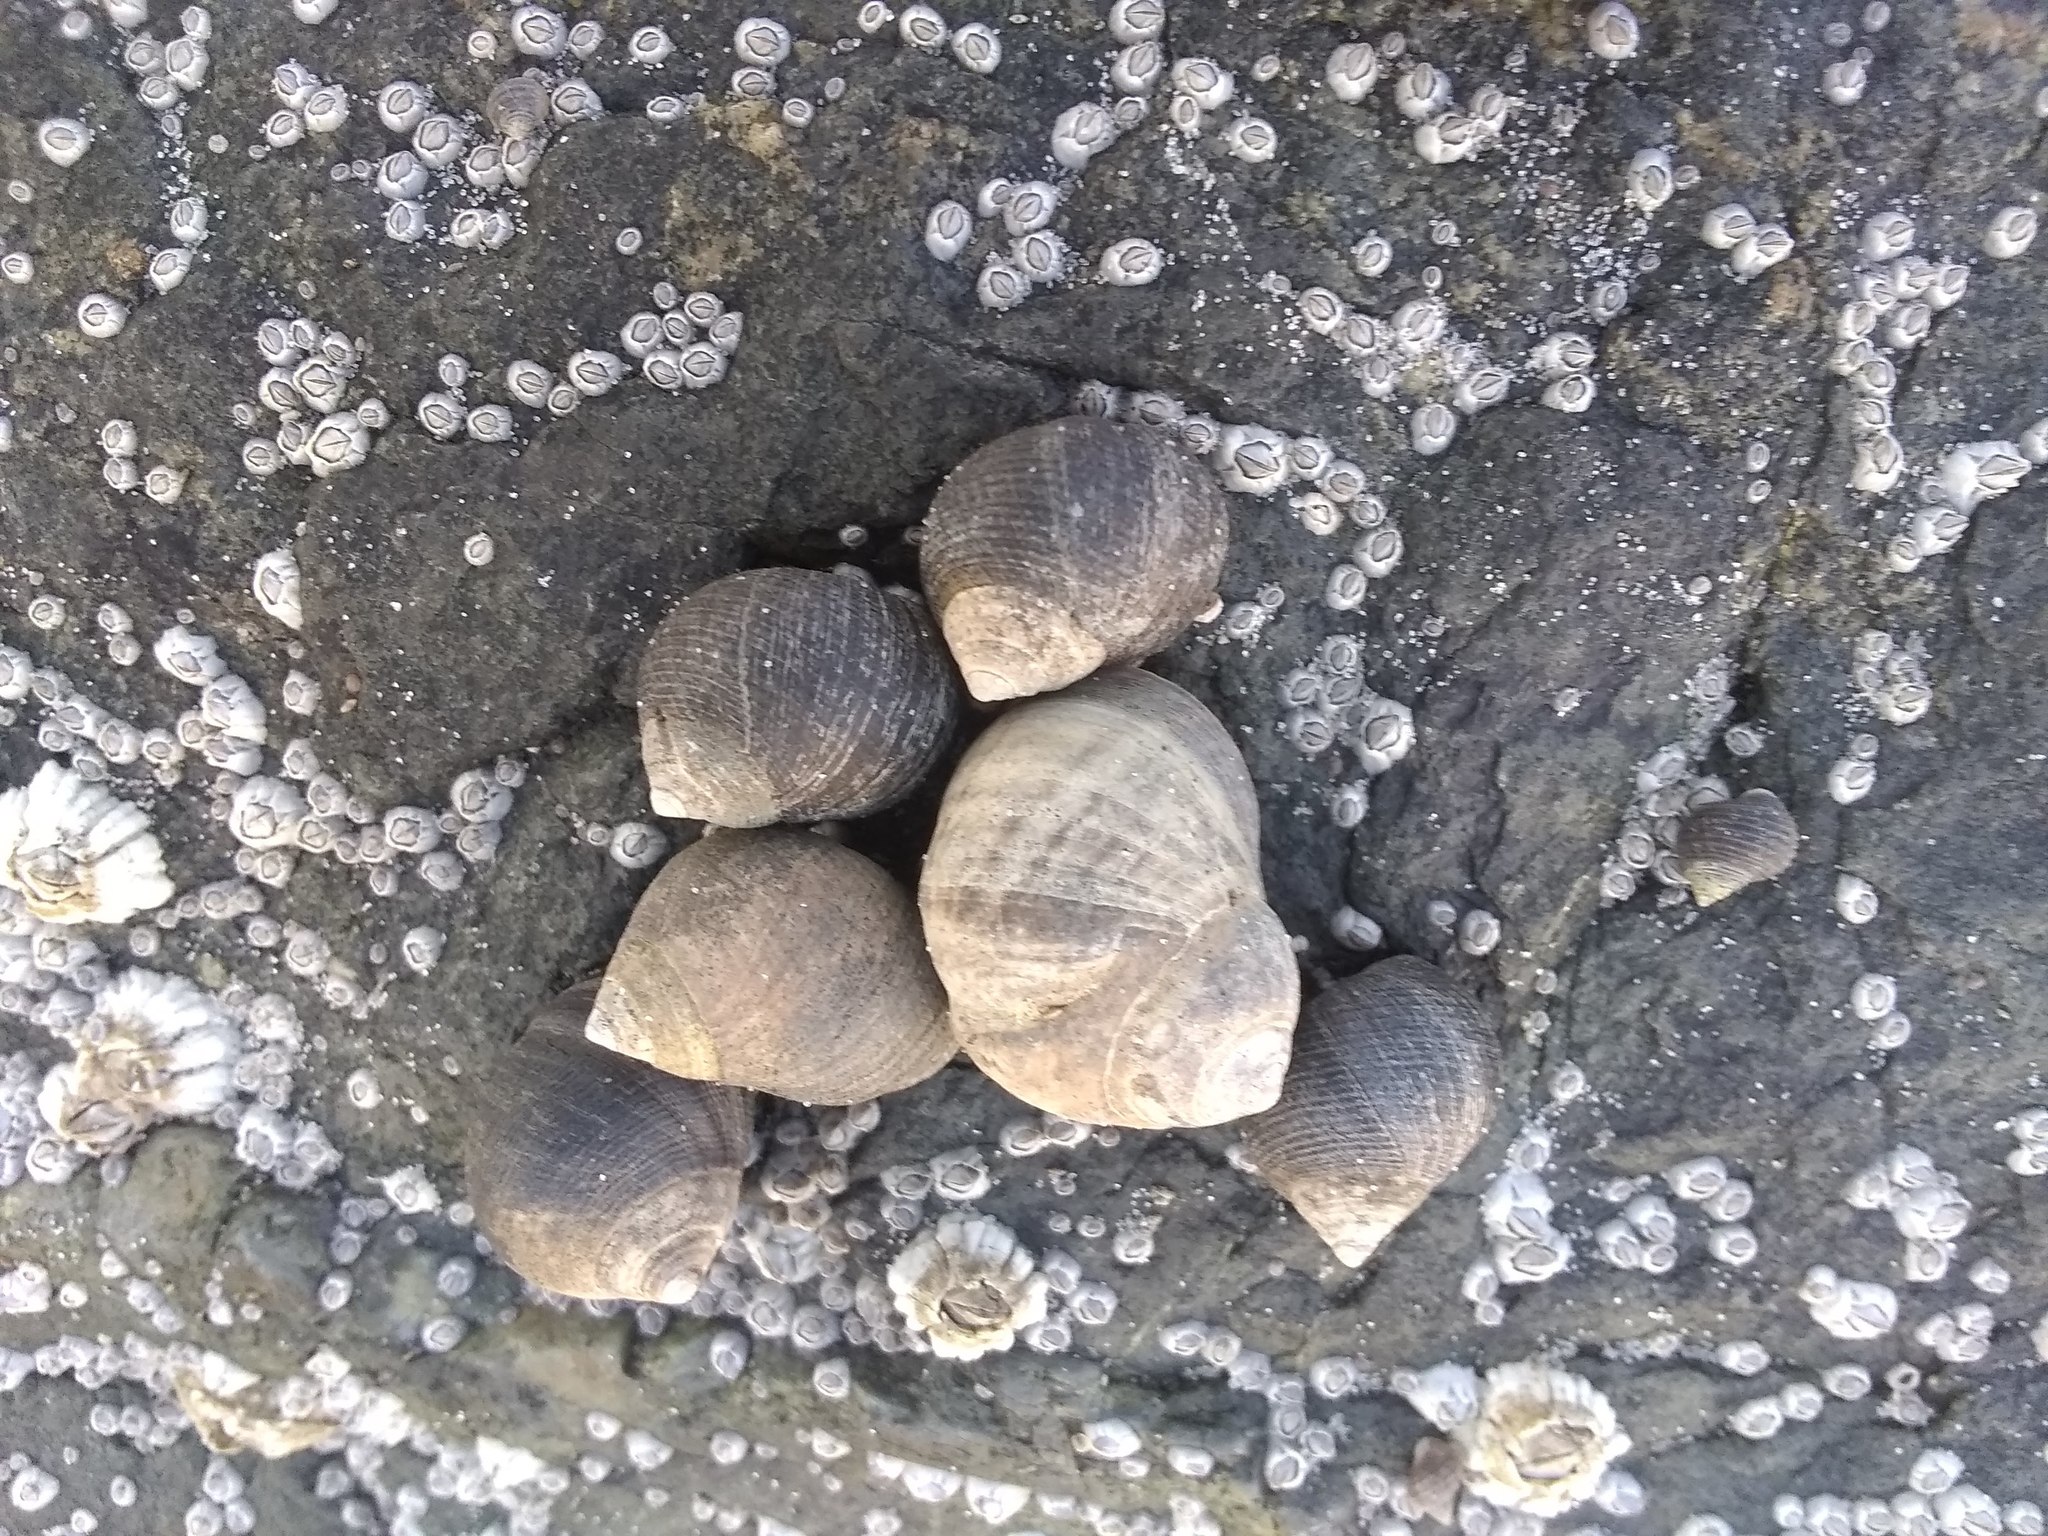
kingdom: Animalia
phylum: Mollusca
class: Gastropoda
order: Littorinimorpha
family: Littorinidae
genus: Littorina
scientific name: Littorina littorea
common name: Common periwinkle
